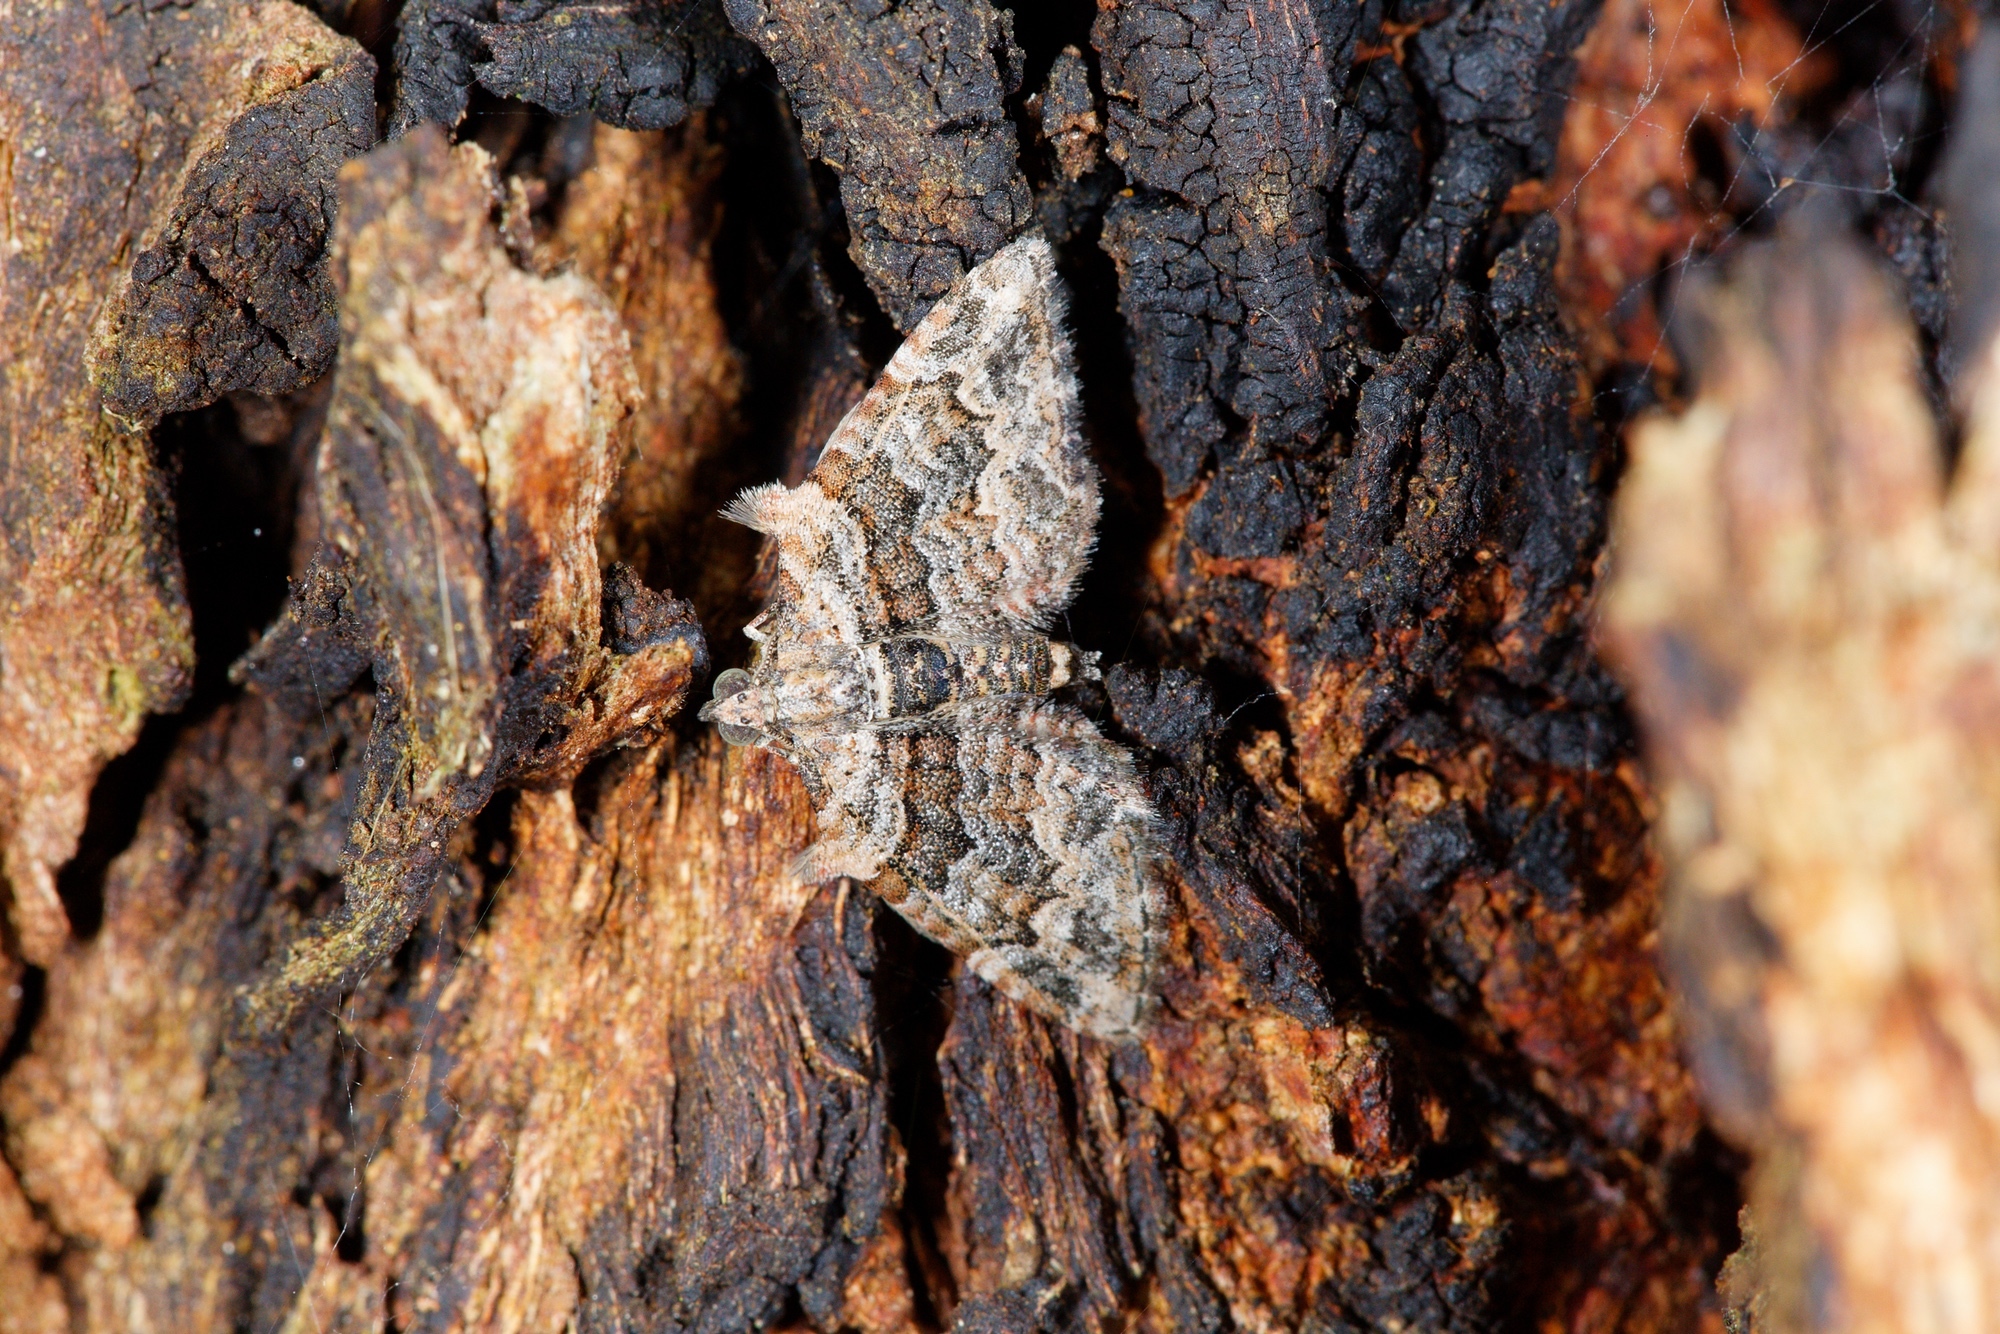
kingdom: Animalia
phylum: Arthropoda
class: Insecta
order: Lepidoptera
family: Geometridae
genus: Phrissogonus
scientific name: Phrissogonus laticostata
